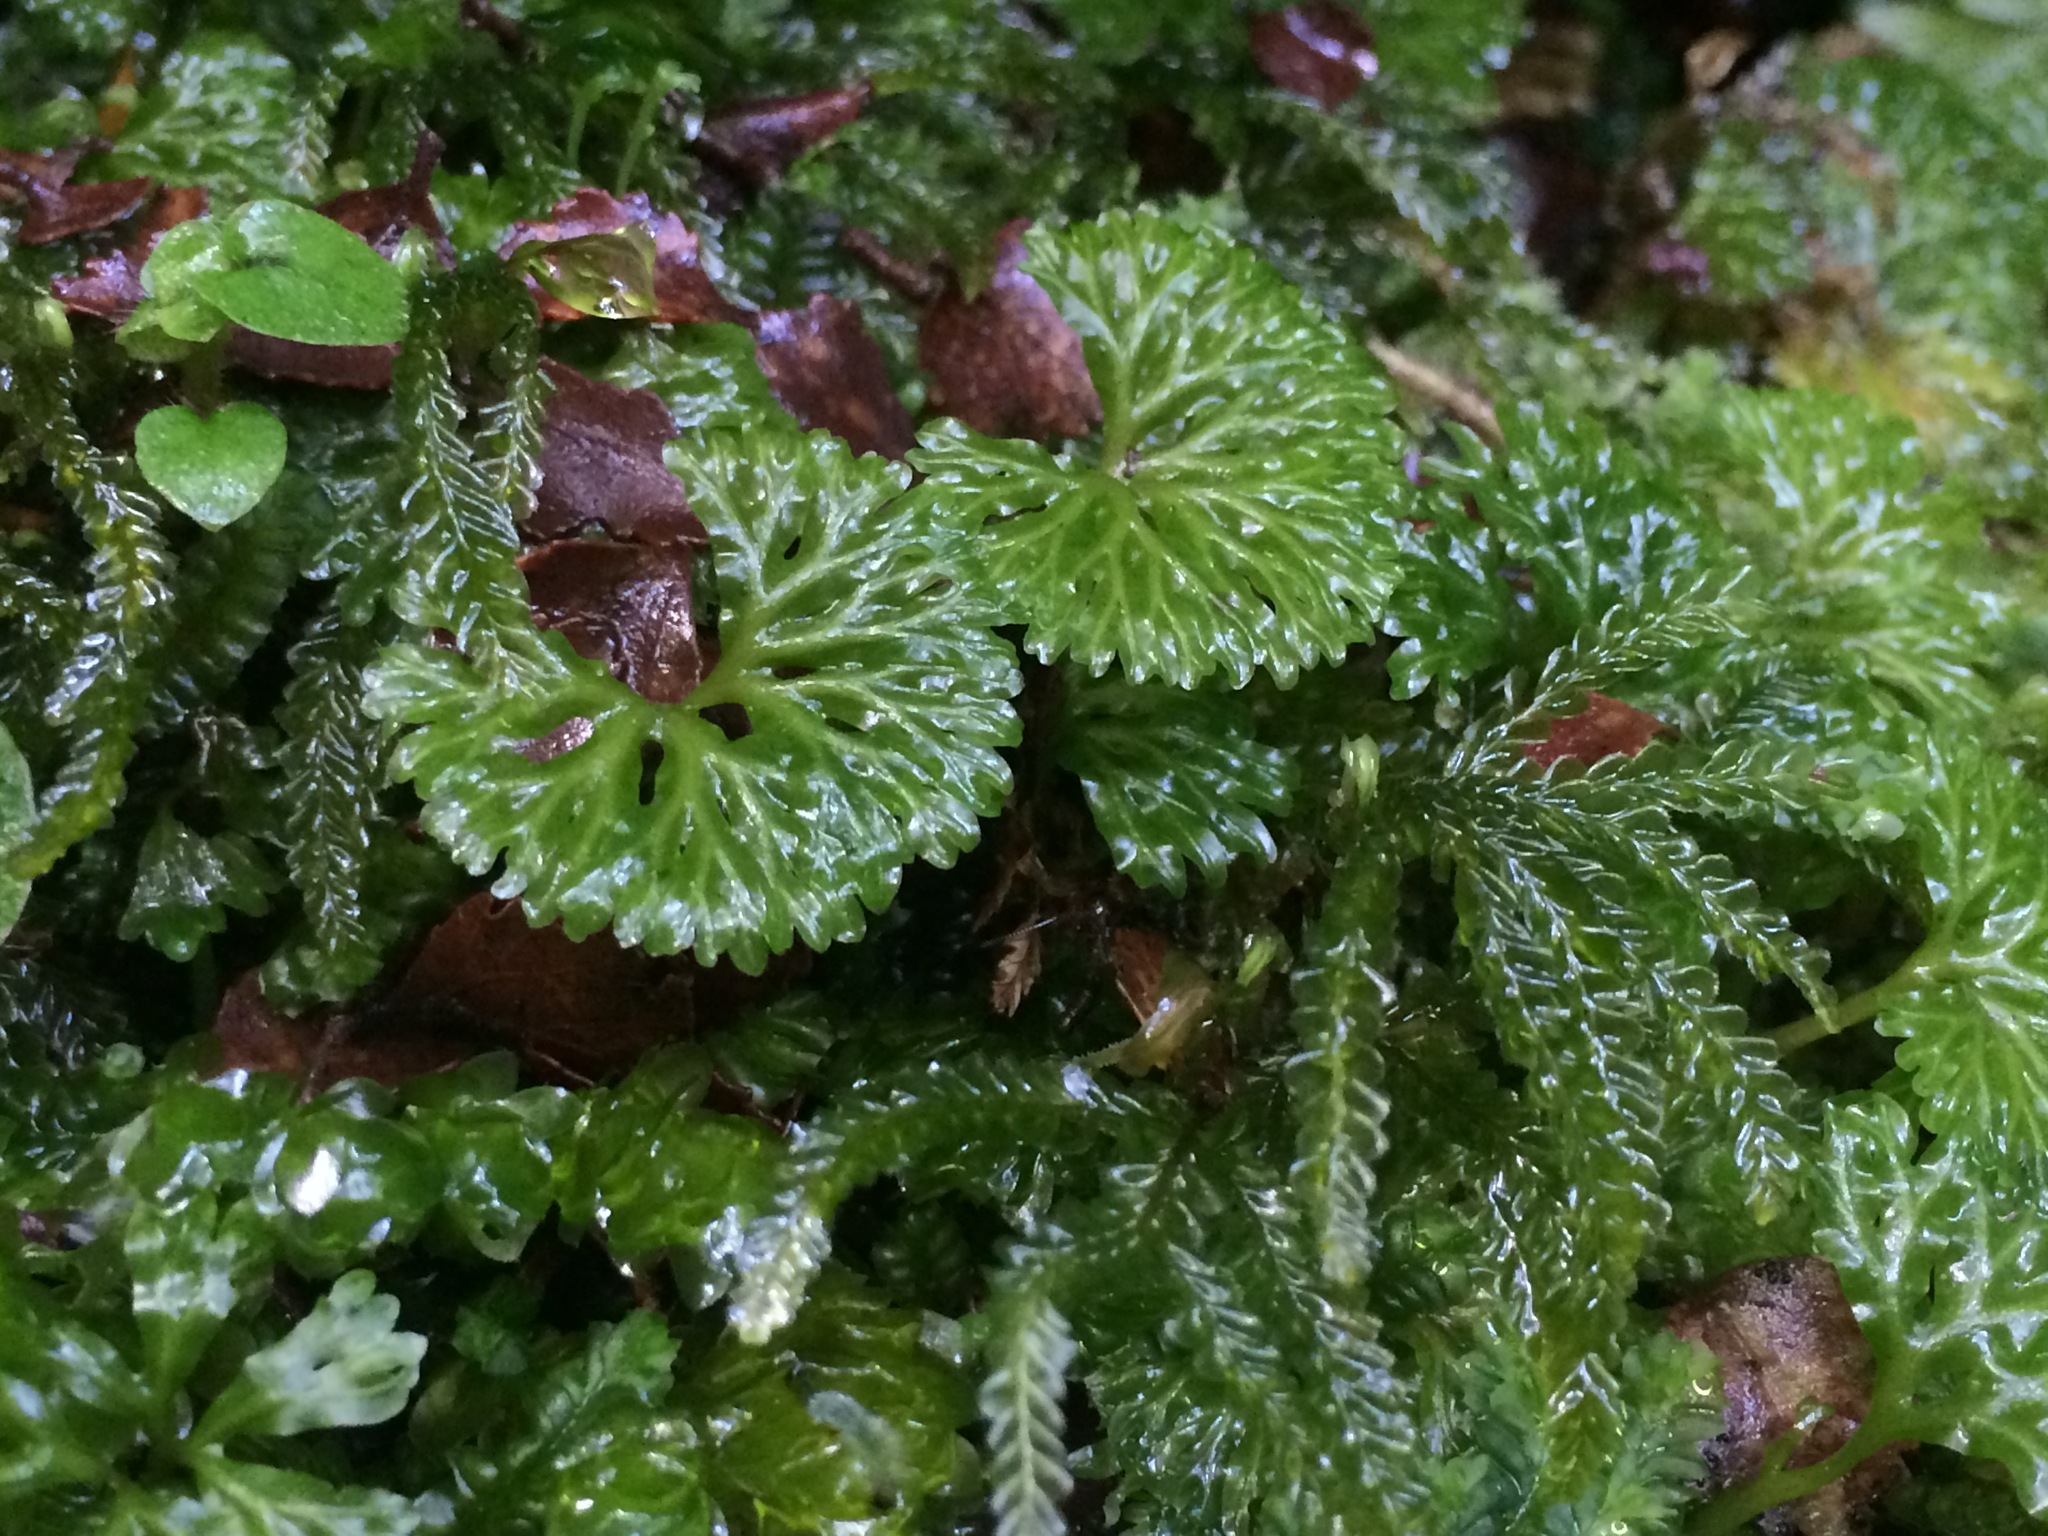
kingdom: Plantae
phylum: Marchantiophyta
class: Jungermanniopsida
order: Pallaviciniales
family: Hymenophytaceae
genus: Hymenophyton
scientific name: Hymenophyton flabellatum
